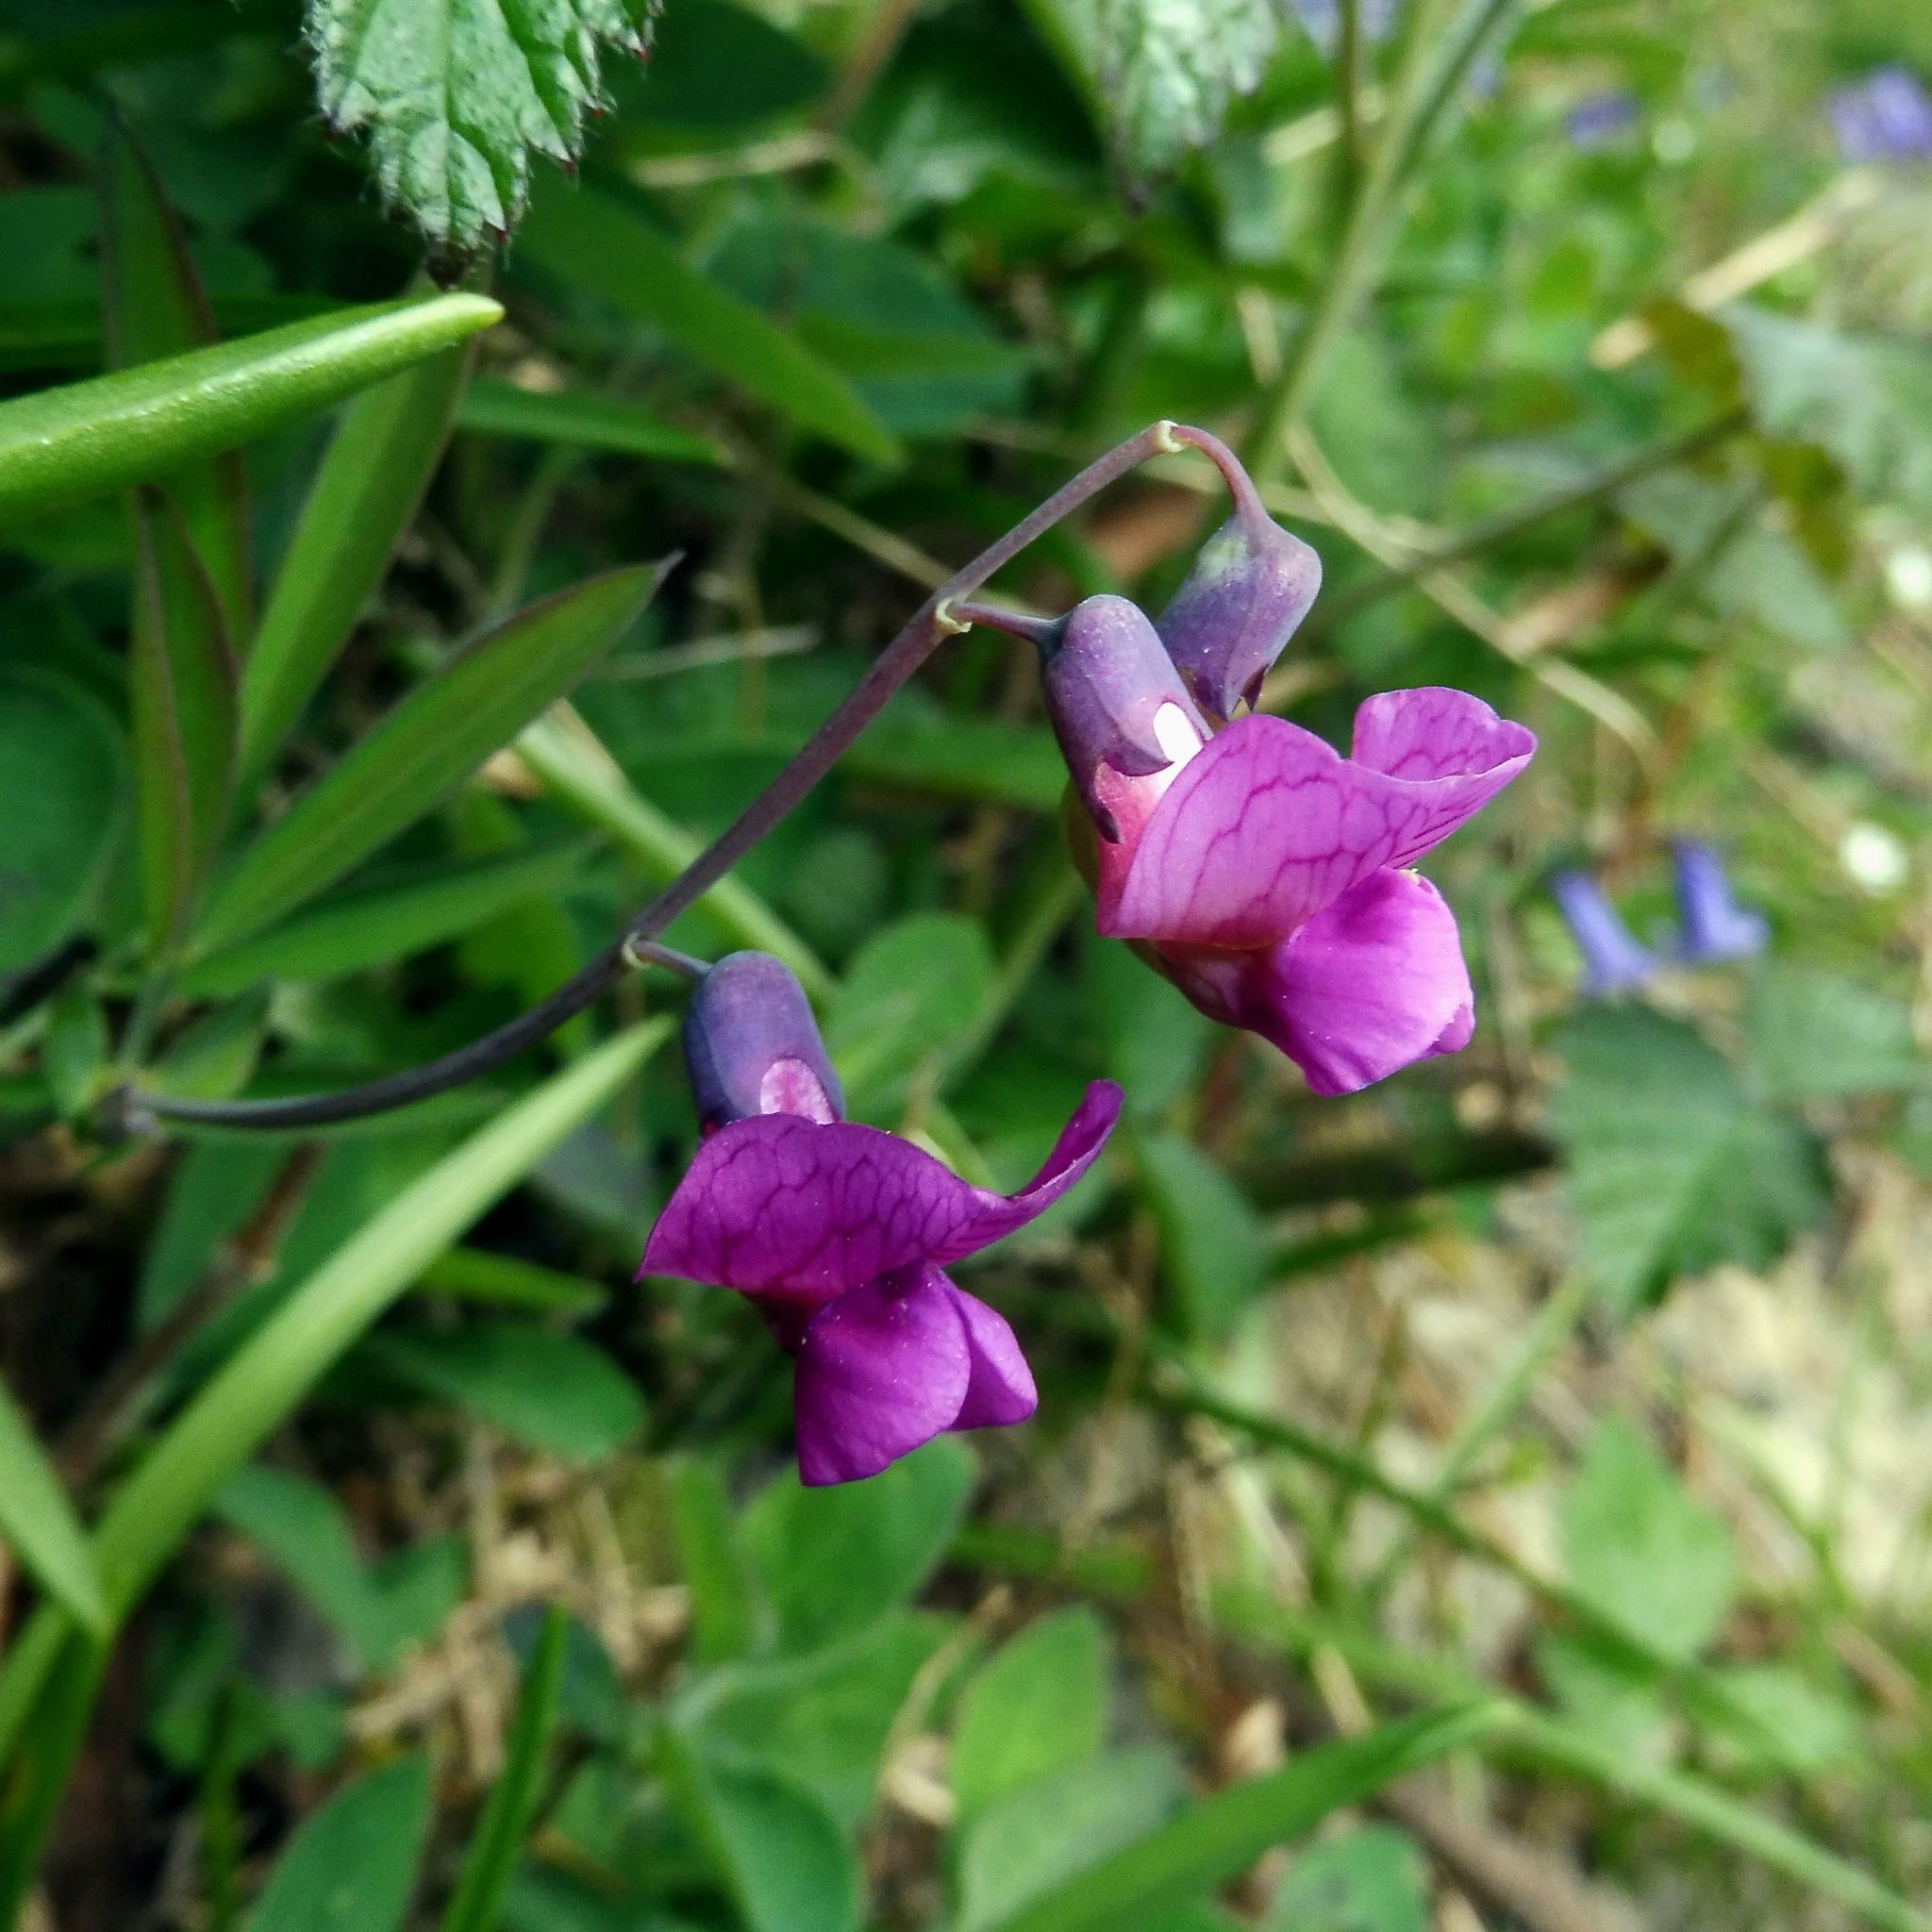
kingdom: Plantae
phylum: Tracheophyta
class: Magnoliopsida
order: Fabales
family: Fabaceae
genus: Lathyrus
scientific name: Lathyrus linifolius
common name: Bitter-vetch
